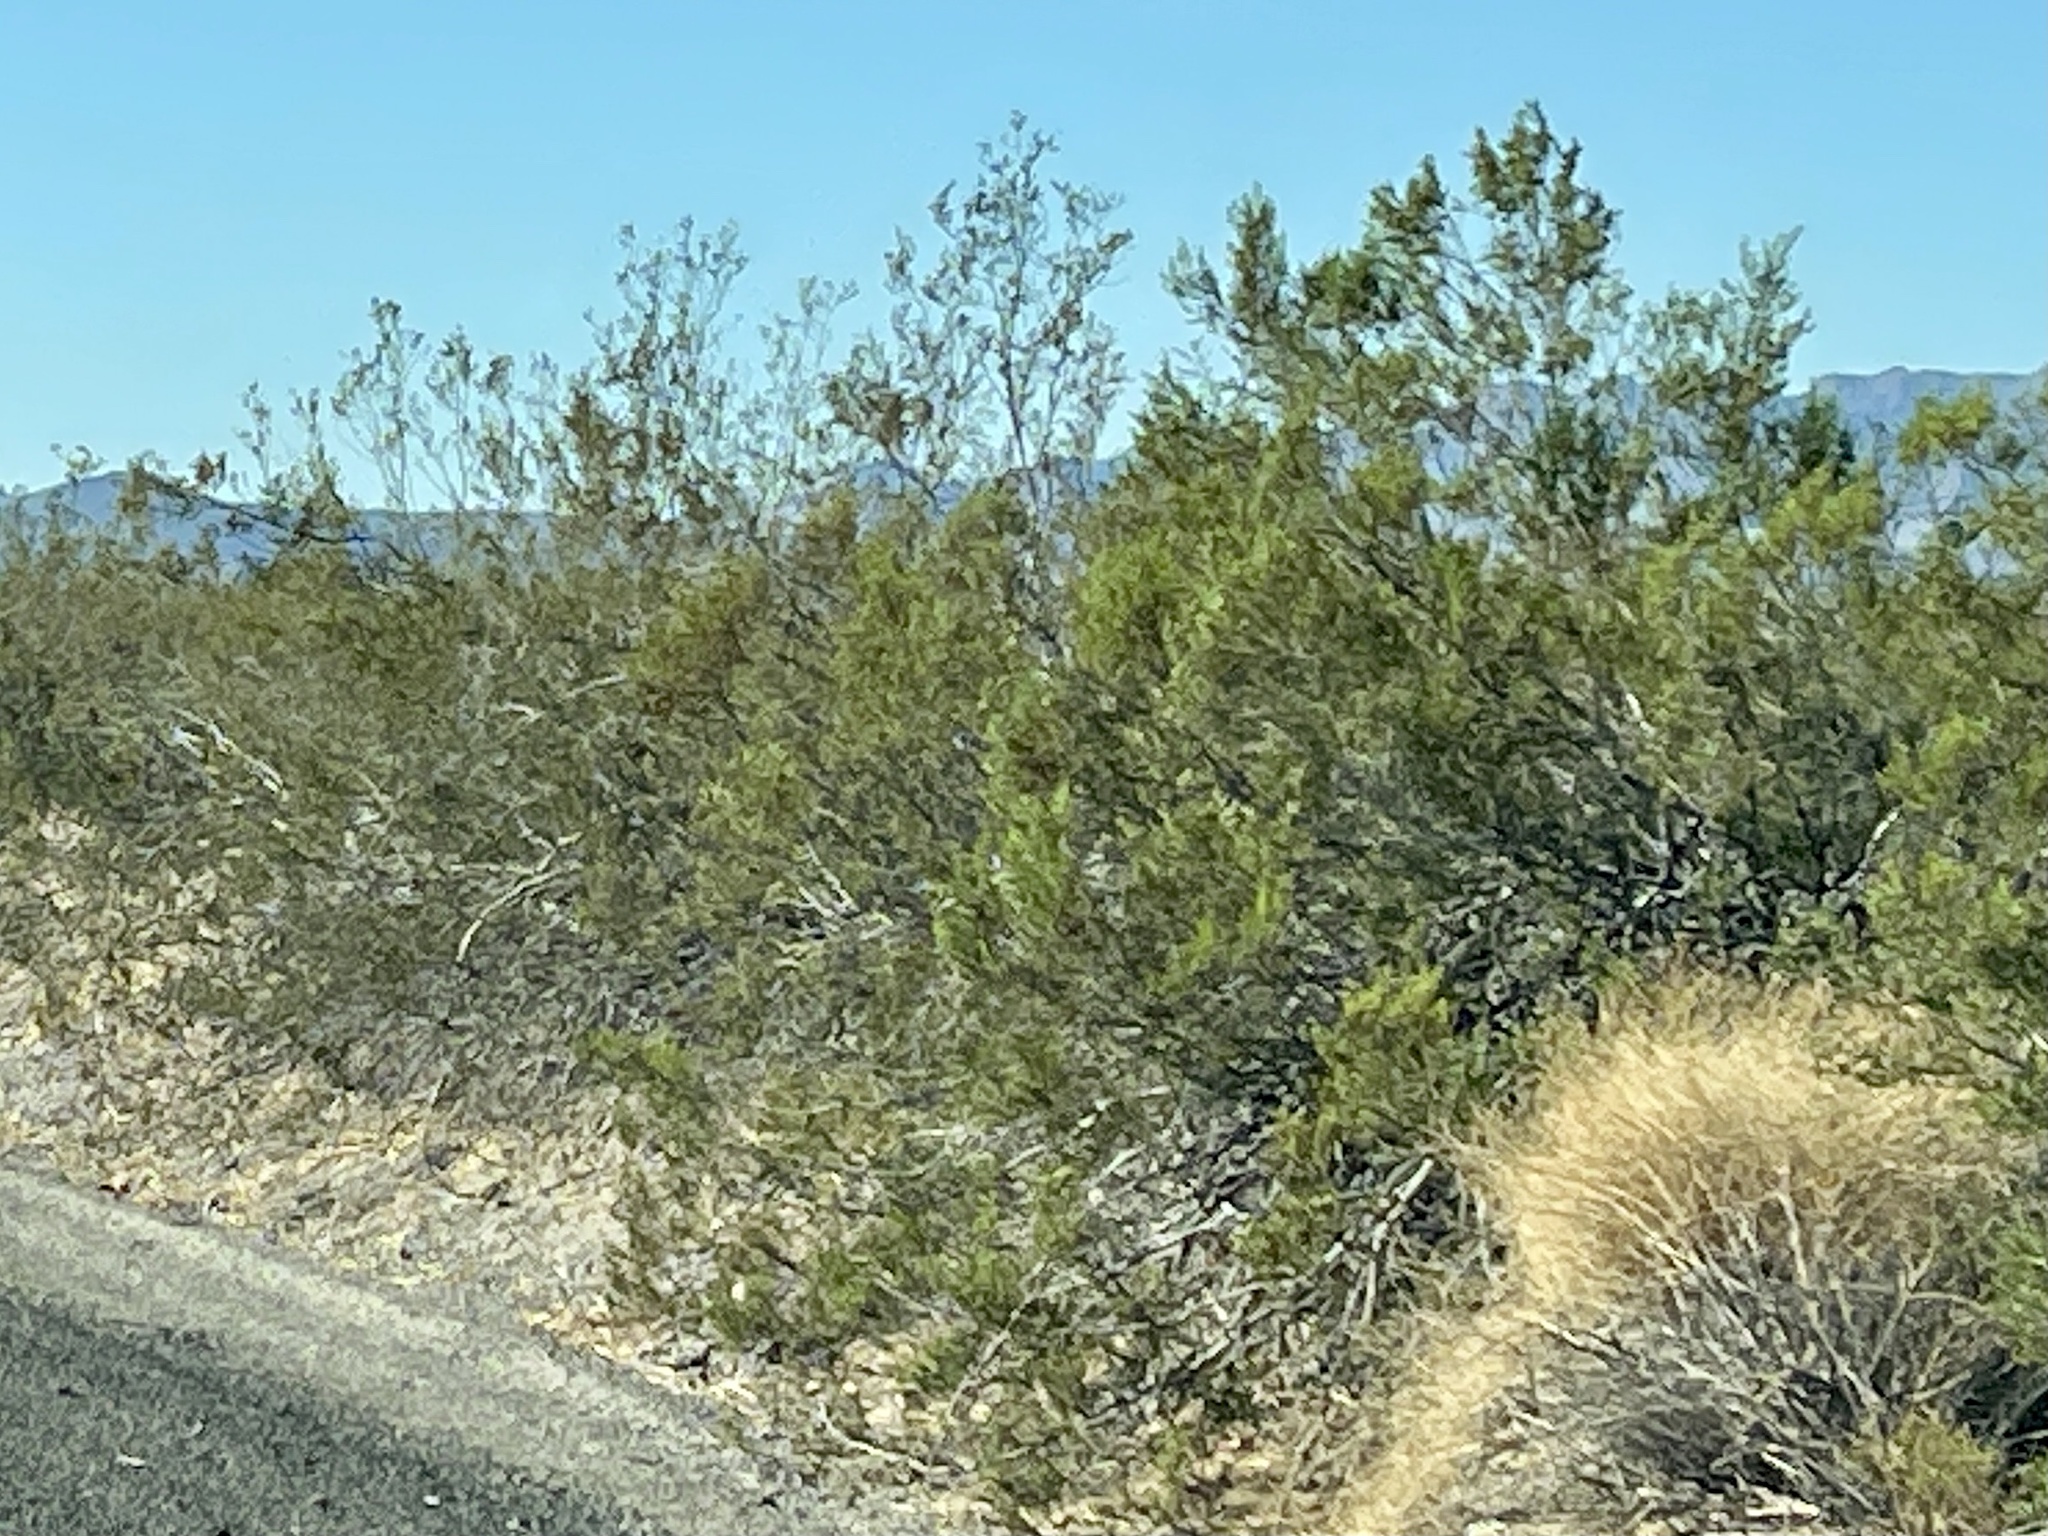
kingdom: Plantae
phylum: Tracheophyta
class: Magnoliopsida
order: Zygophyllales
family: Zygophyllaceae
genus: Larrea
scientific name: Larrea tridentata
